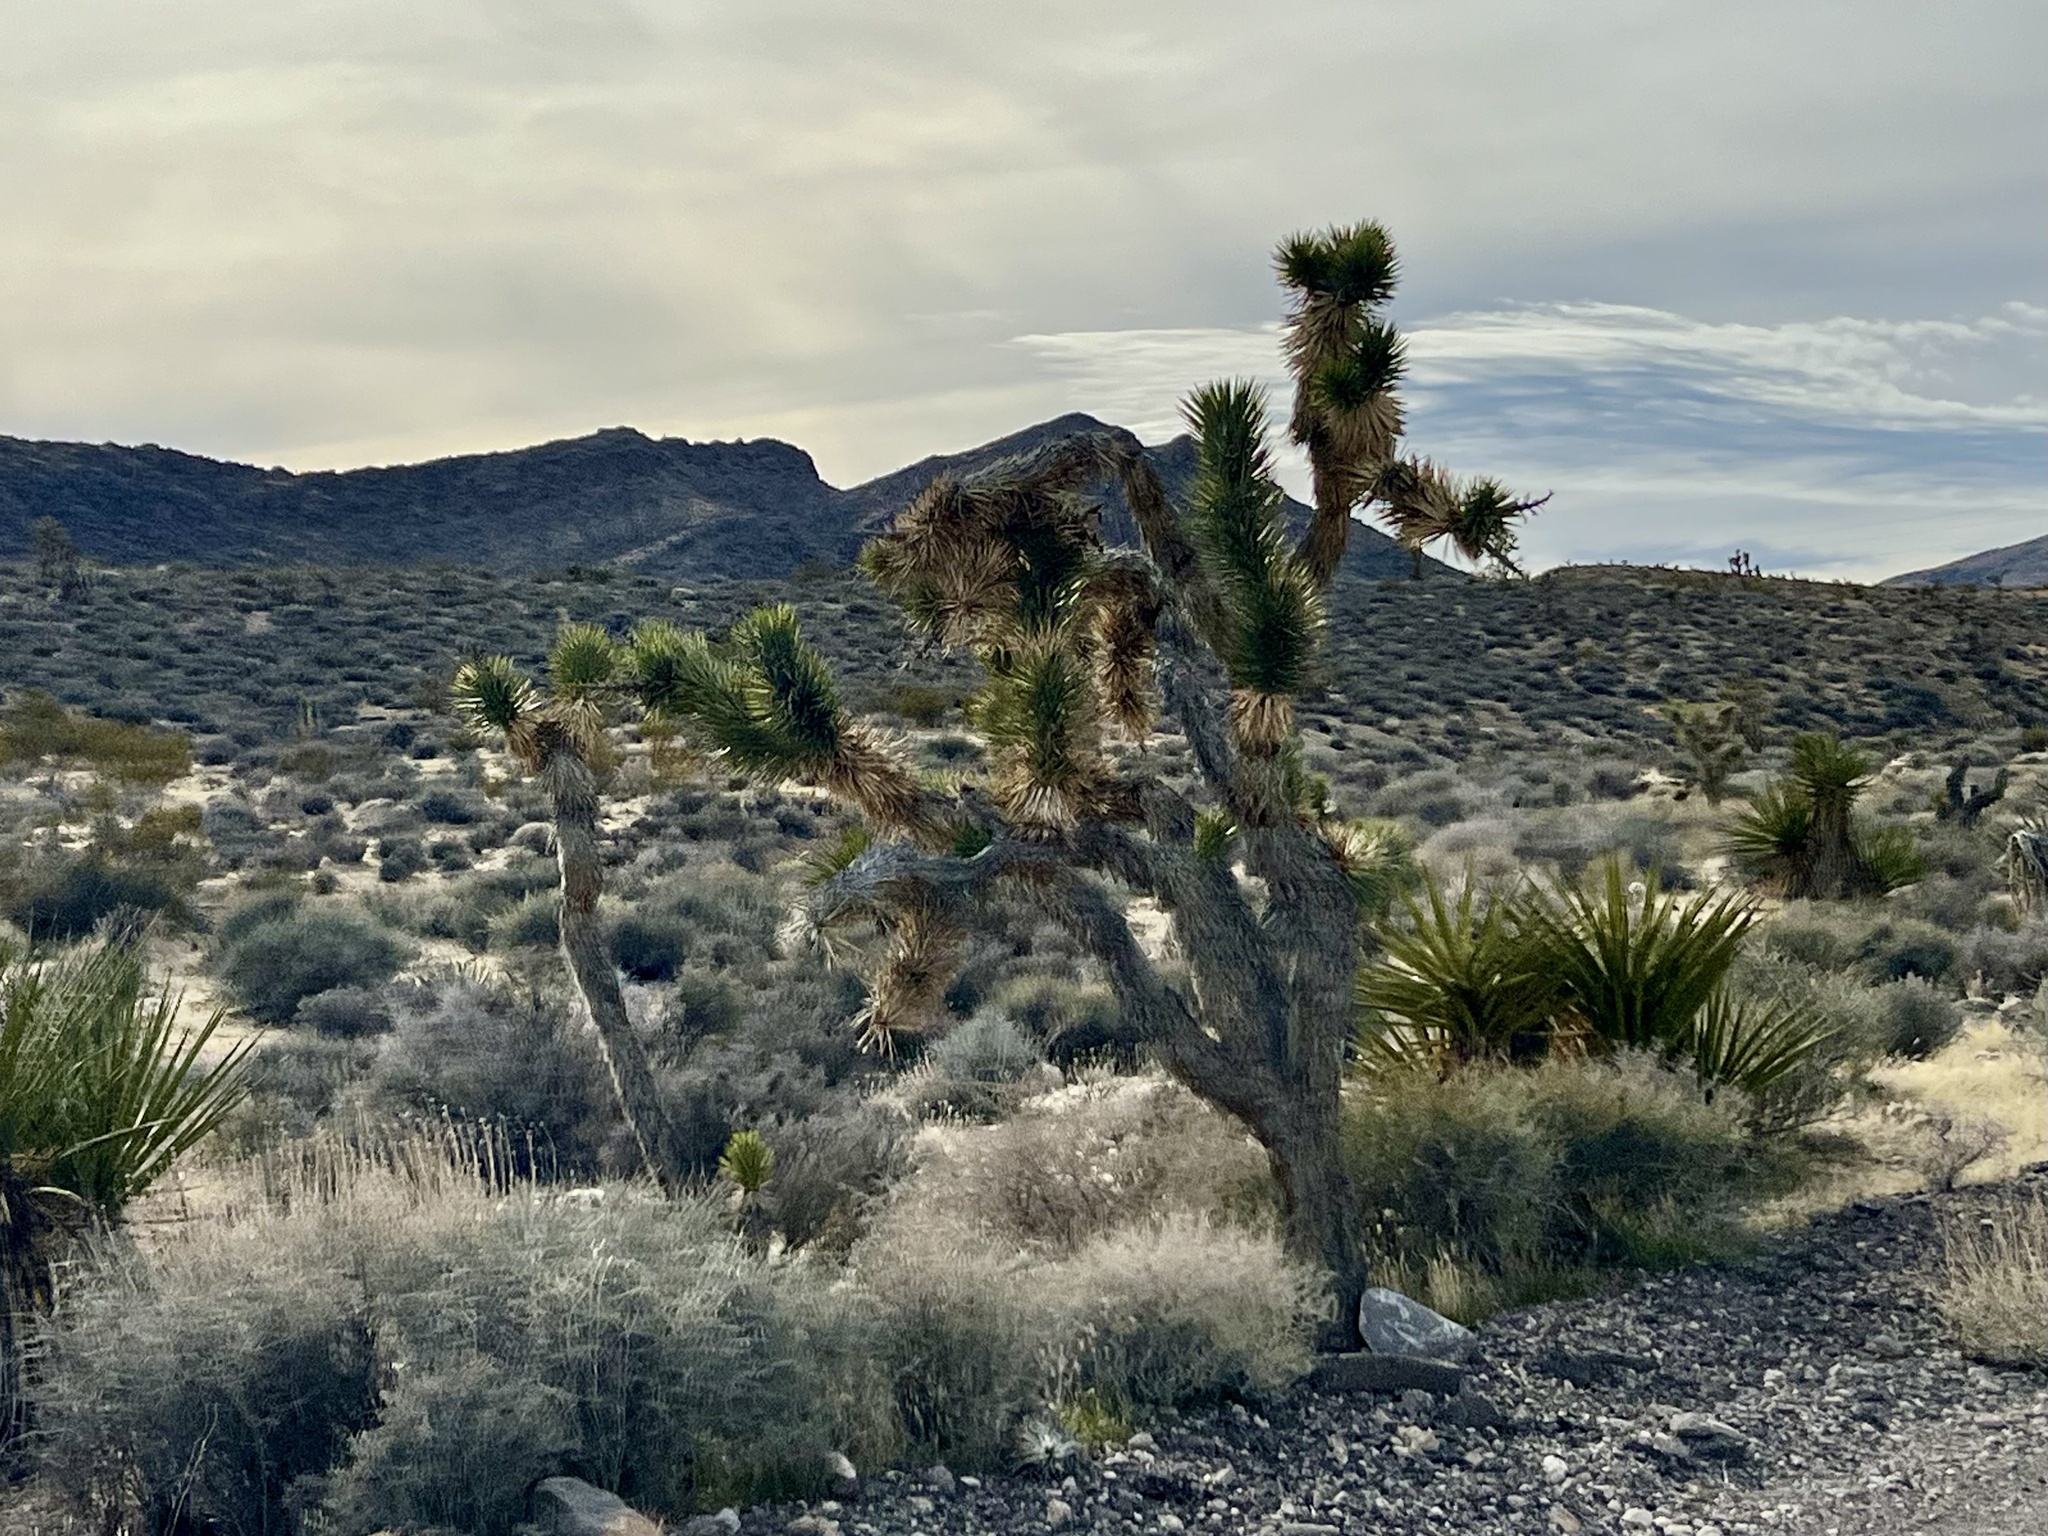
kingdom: Plantae
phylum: Tracheophyta
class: Liliopsida
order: Asparagales
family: Asparagaceae
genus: Yucca
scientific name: Yucca brevifolia
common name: Joshua tree
